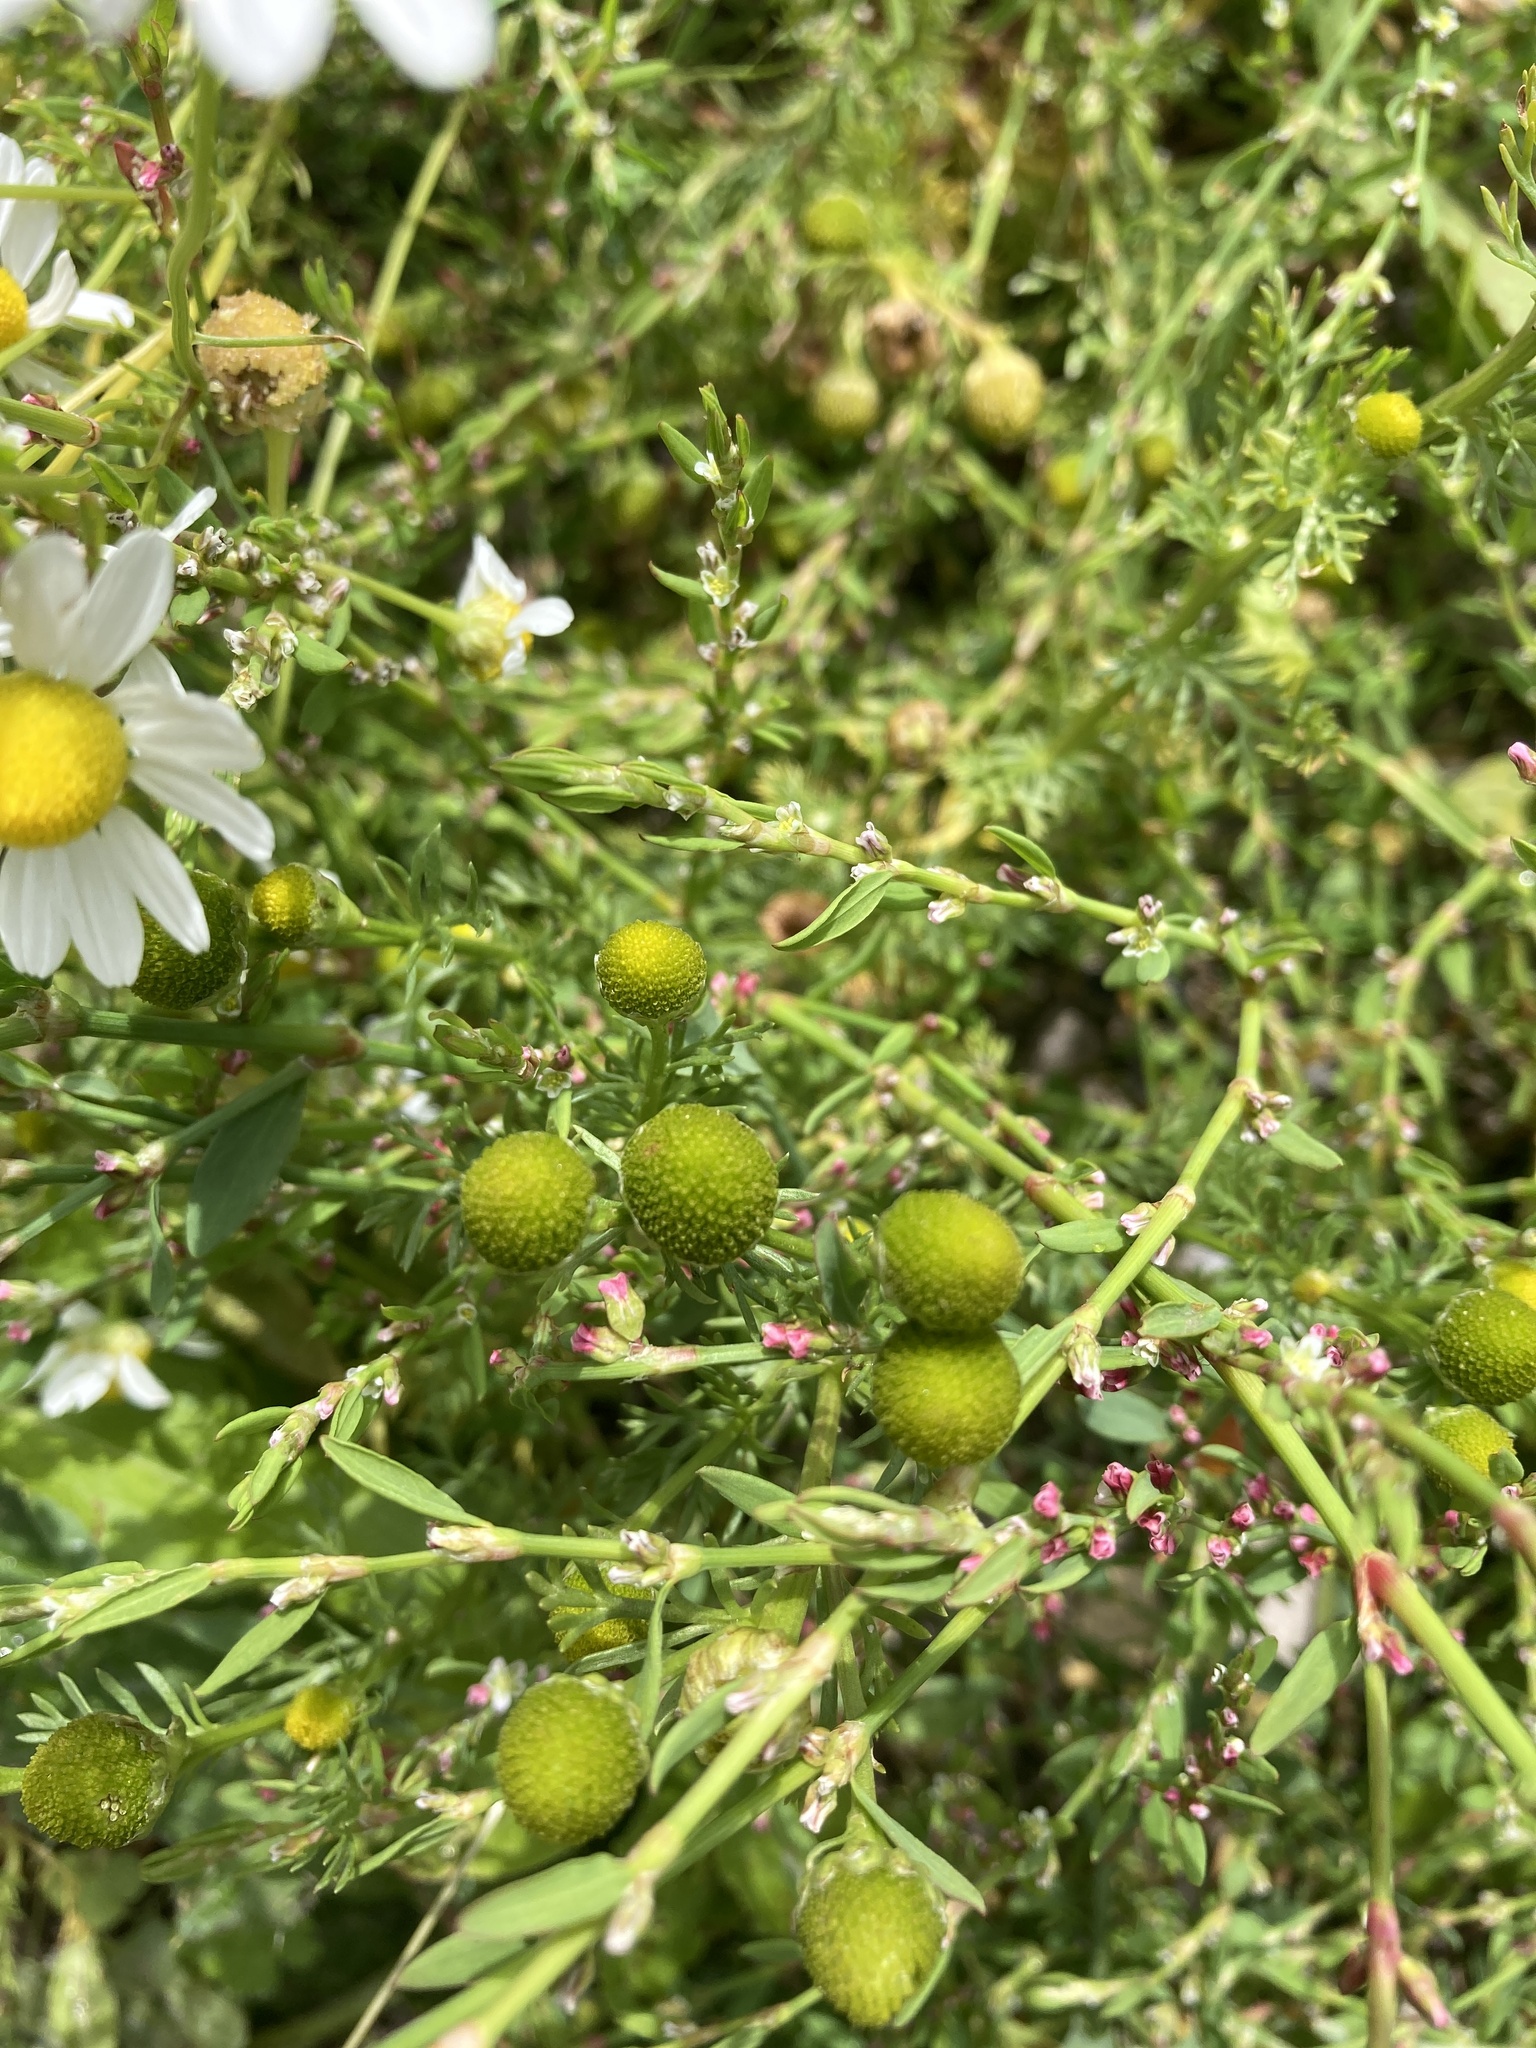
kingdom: Plantae
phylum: Tracheophyta
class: Magnoliopsida
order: Asterales
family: Asteraceae
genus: Matricaria
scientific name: Matricaria discoidea
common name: Disc mayweed
